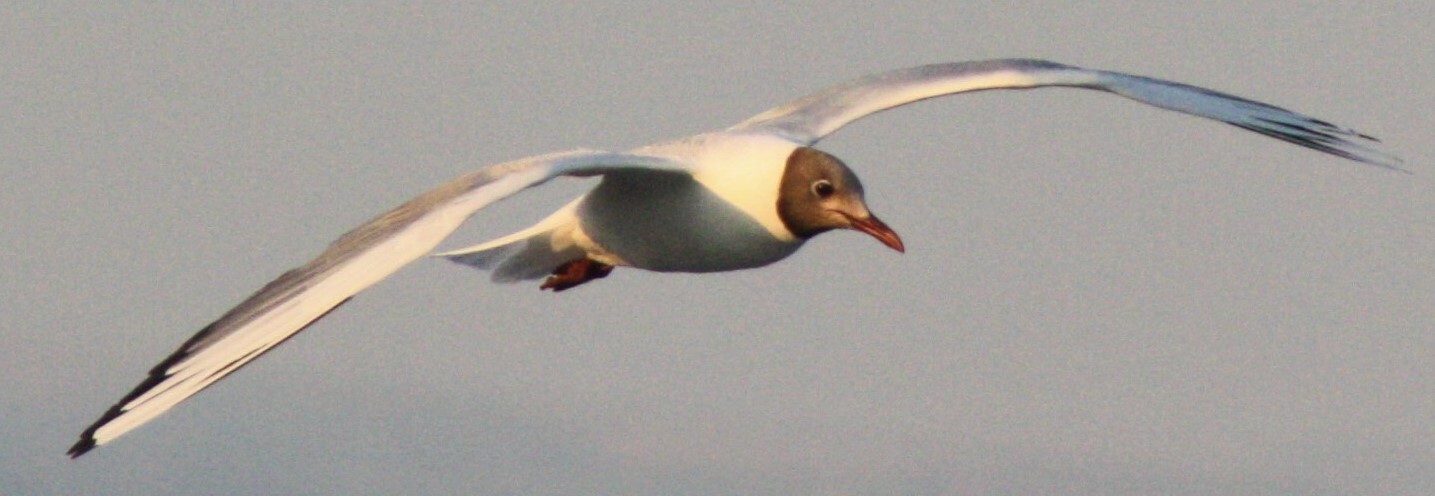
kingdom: Animalia
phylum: Chordata
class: Aves
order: Charadriiformes
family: Laridae
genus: Chroicocephalus
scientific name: Chroicocephalus ridibundus
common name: Black-headed gull
